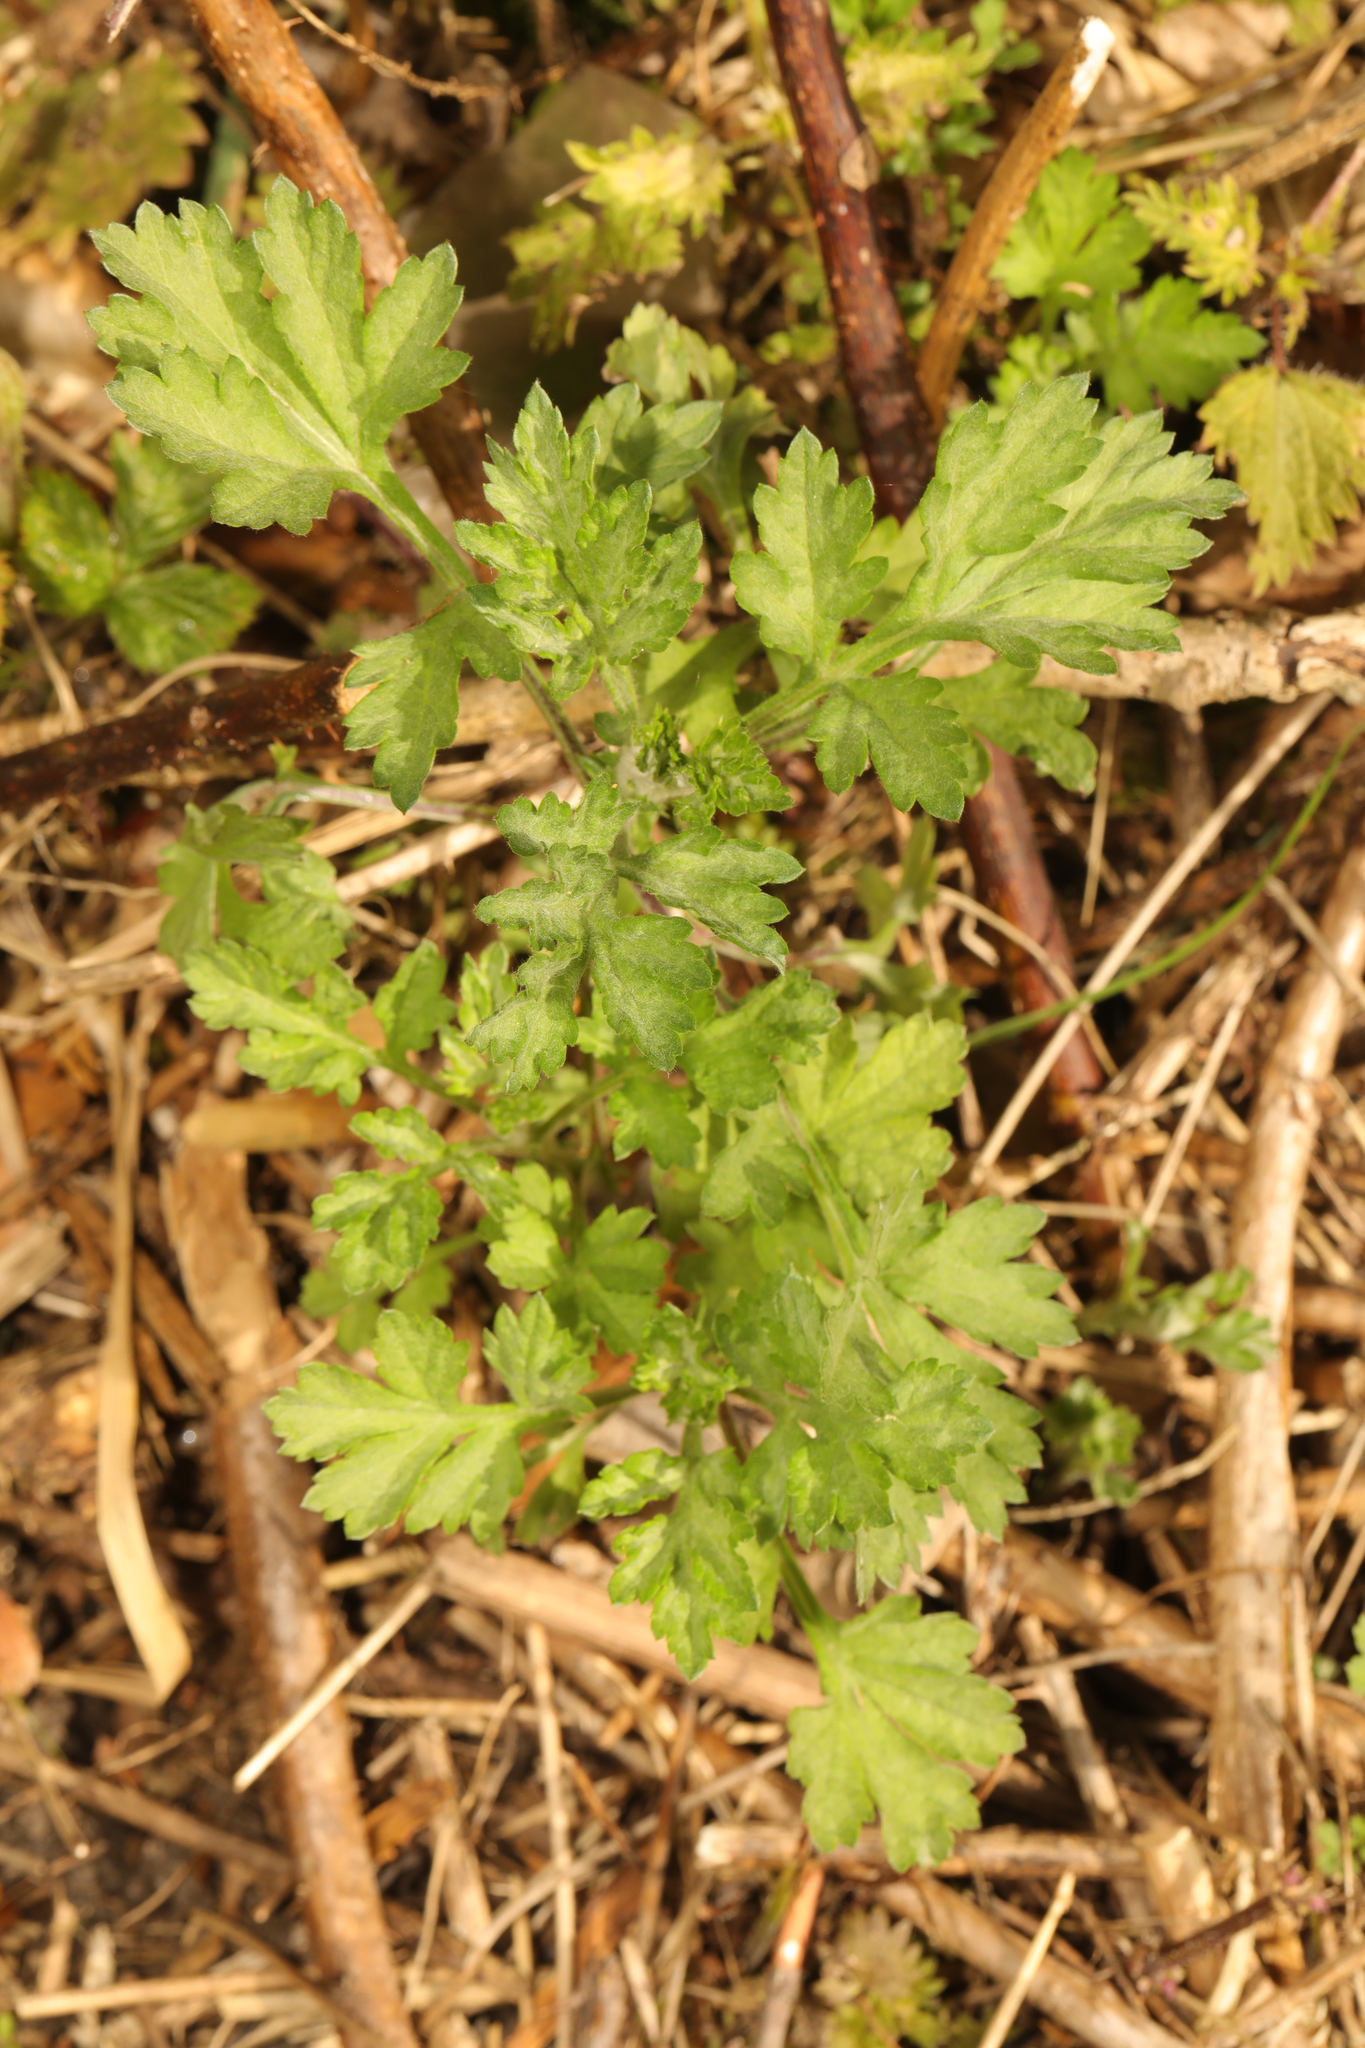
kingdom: Plantae
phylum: Tracheophyta
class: Magnoliopsida
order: Asterales
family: Asteraceae
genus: Artemisia
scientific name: Artemisia vulgaris
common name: Mugwort
